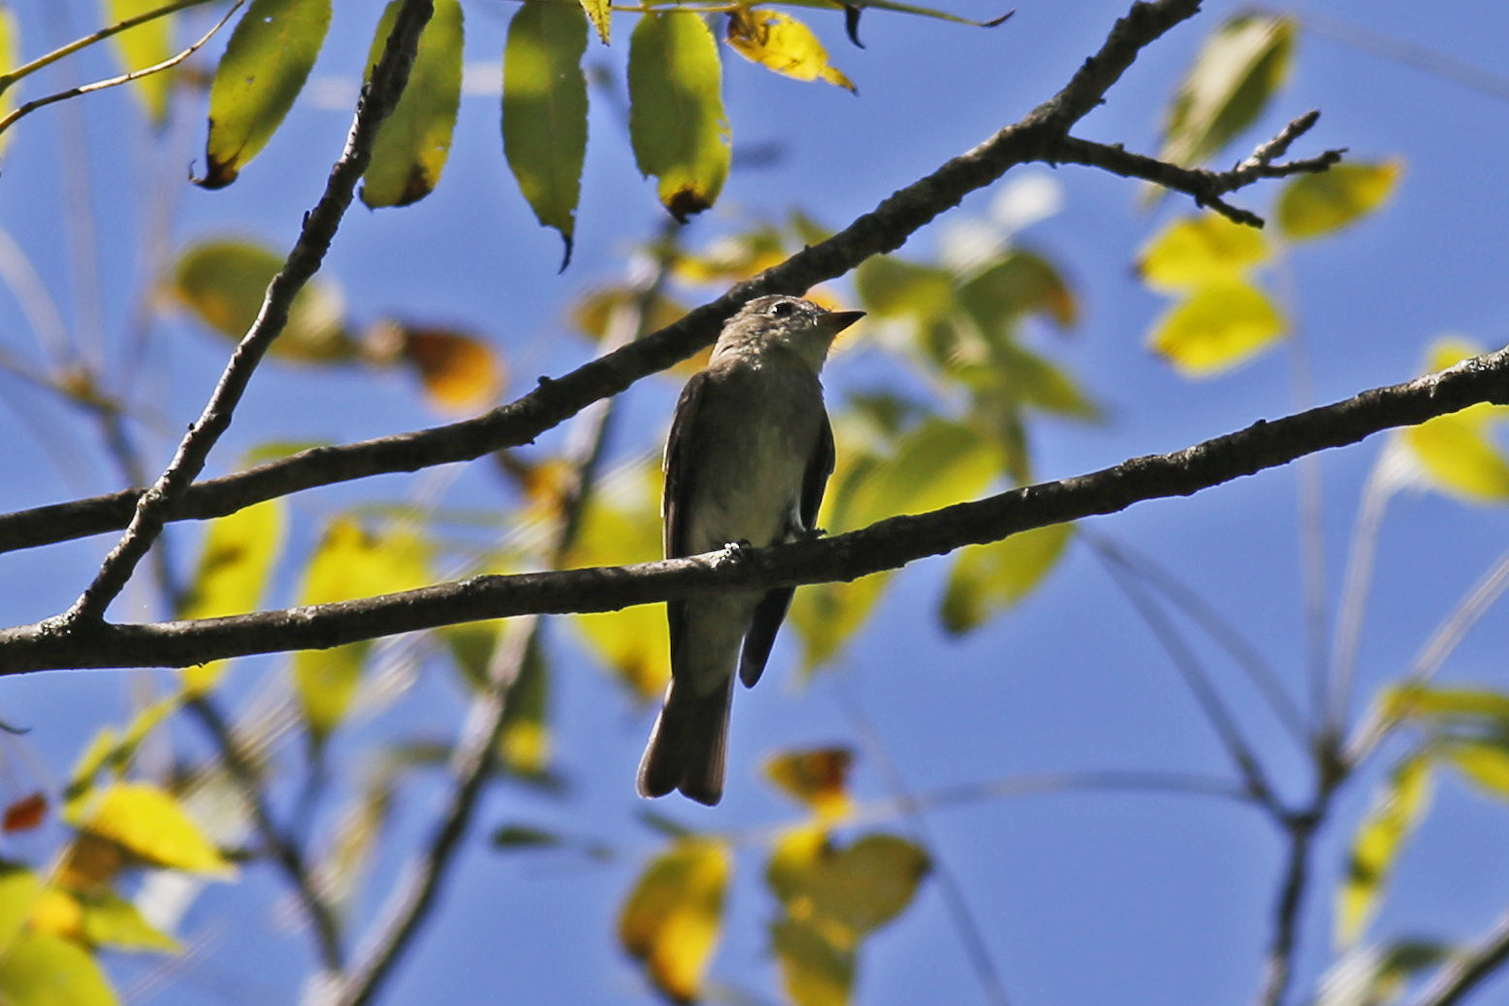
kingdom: Animalia
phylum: Chordata
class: Aves
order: Passeriformes
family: Tyrannidae
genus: Contopus
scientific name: Contopus virens
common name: Eastern wood-pewee
